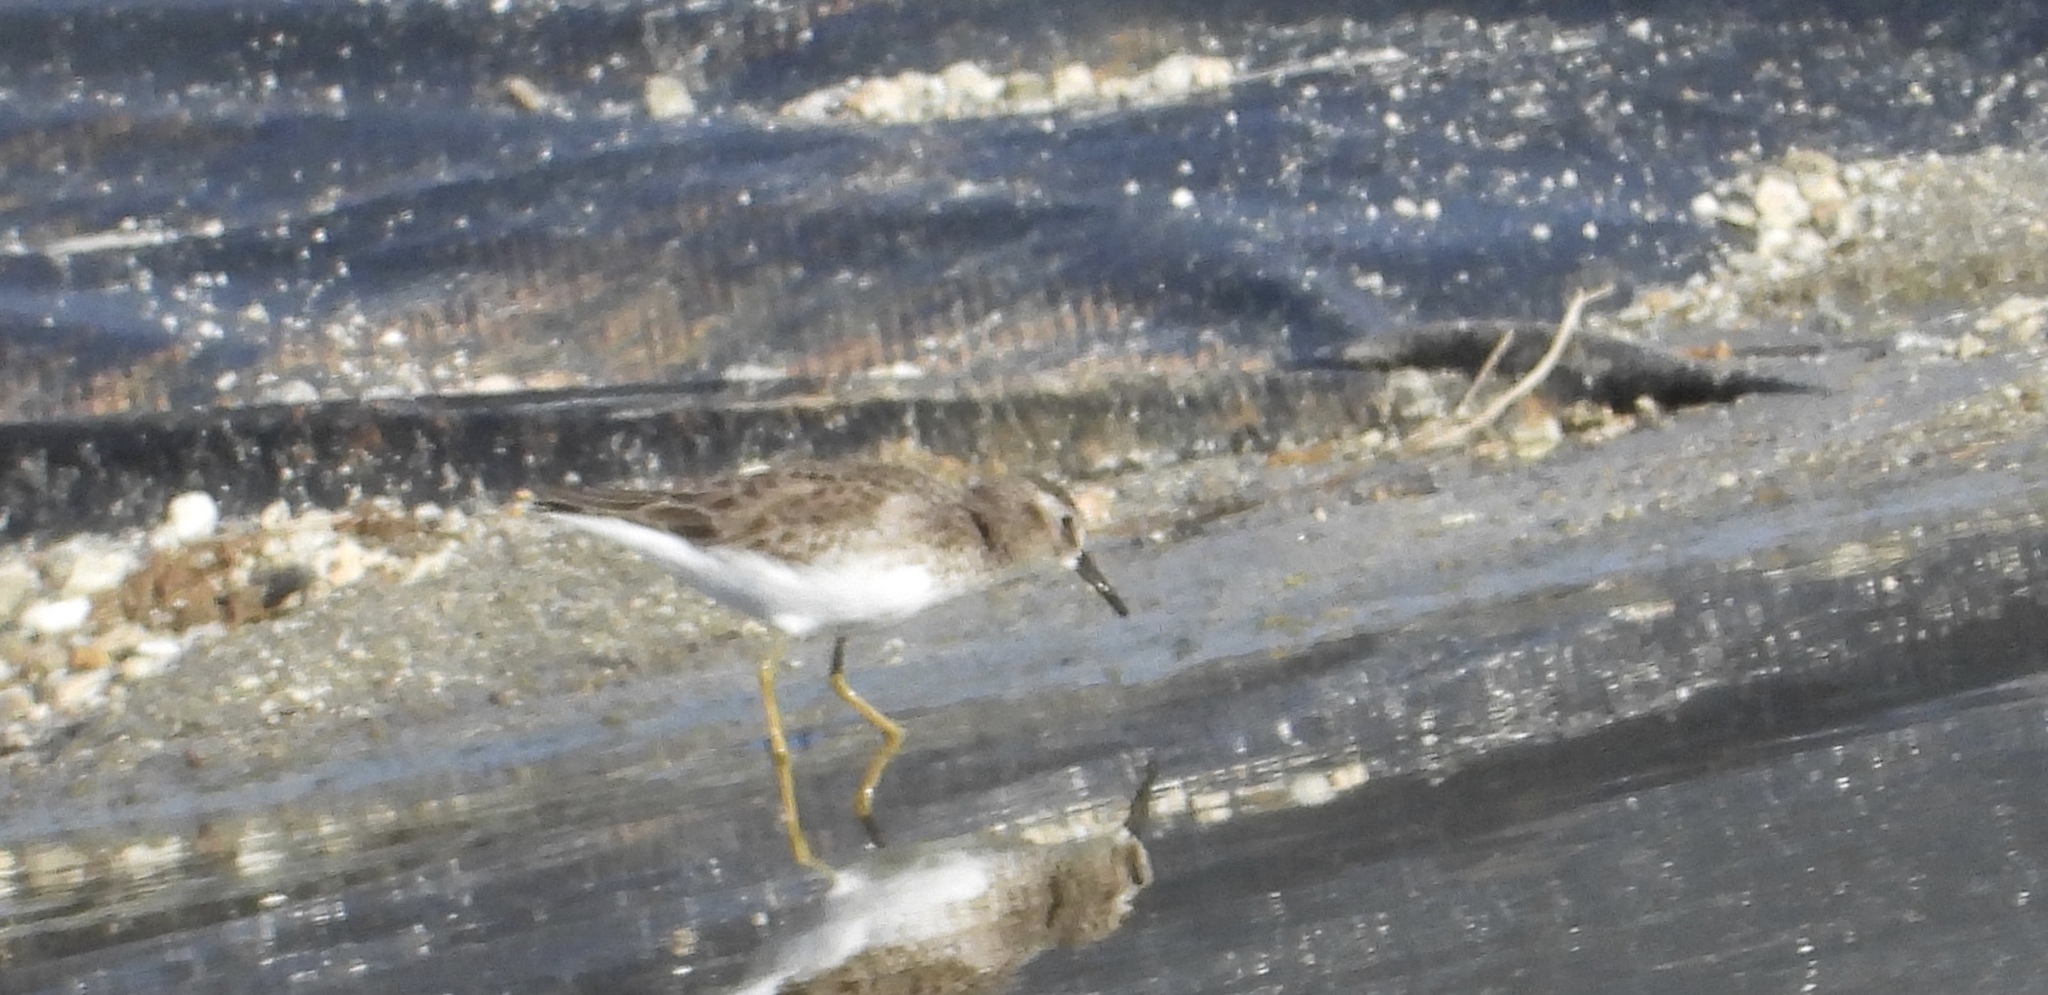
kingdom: Animalia
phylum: Chordata
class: Aves
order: Charadriiformes
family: Scolopacidae
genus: Calidris
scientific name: Calidris minutilla
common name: Least sandpiper
